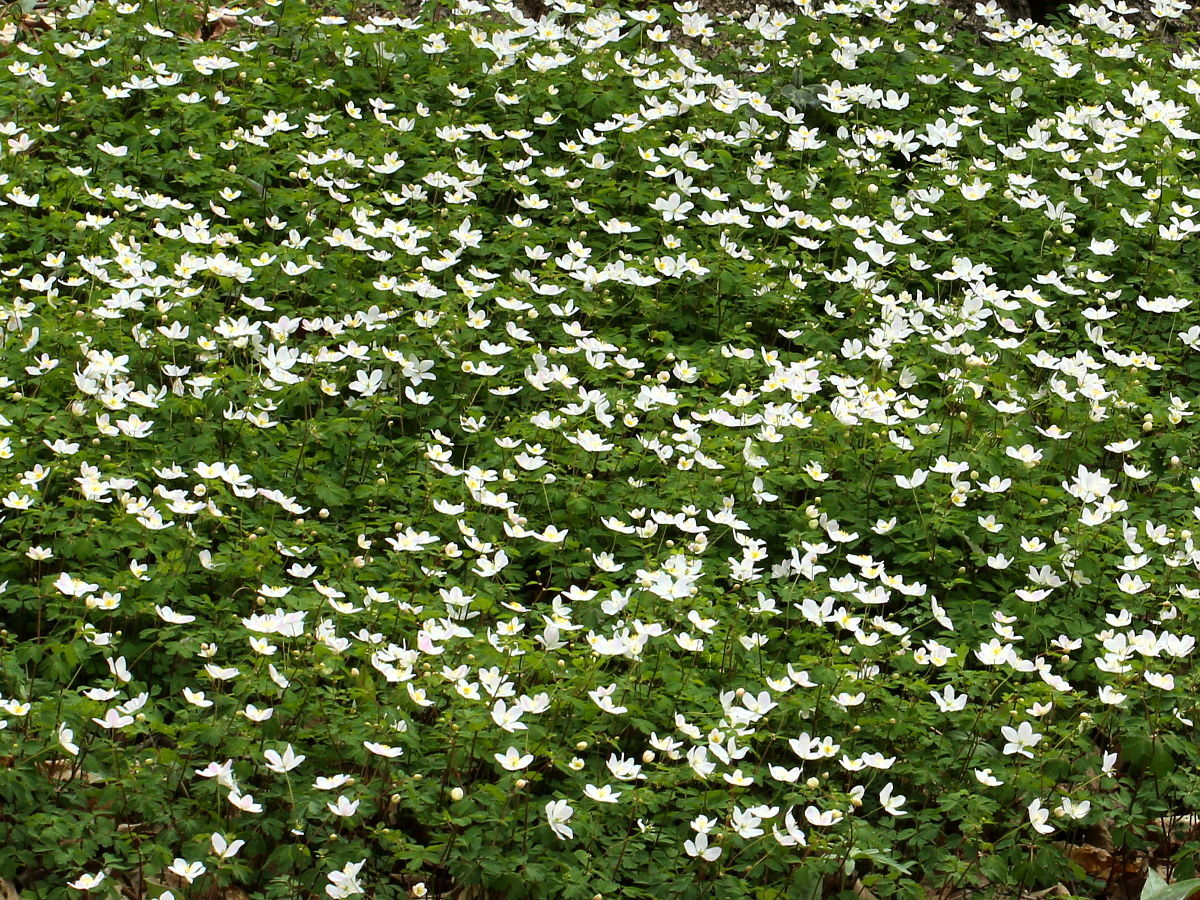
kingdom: Plantae
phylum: Tracheophyta
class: Magnoliopsida
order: Ranunculales
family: Ranunculaceae
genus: Enemion
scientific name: Enemion biternatum
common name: Eastern false rue-anemone
